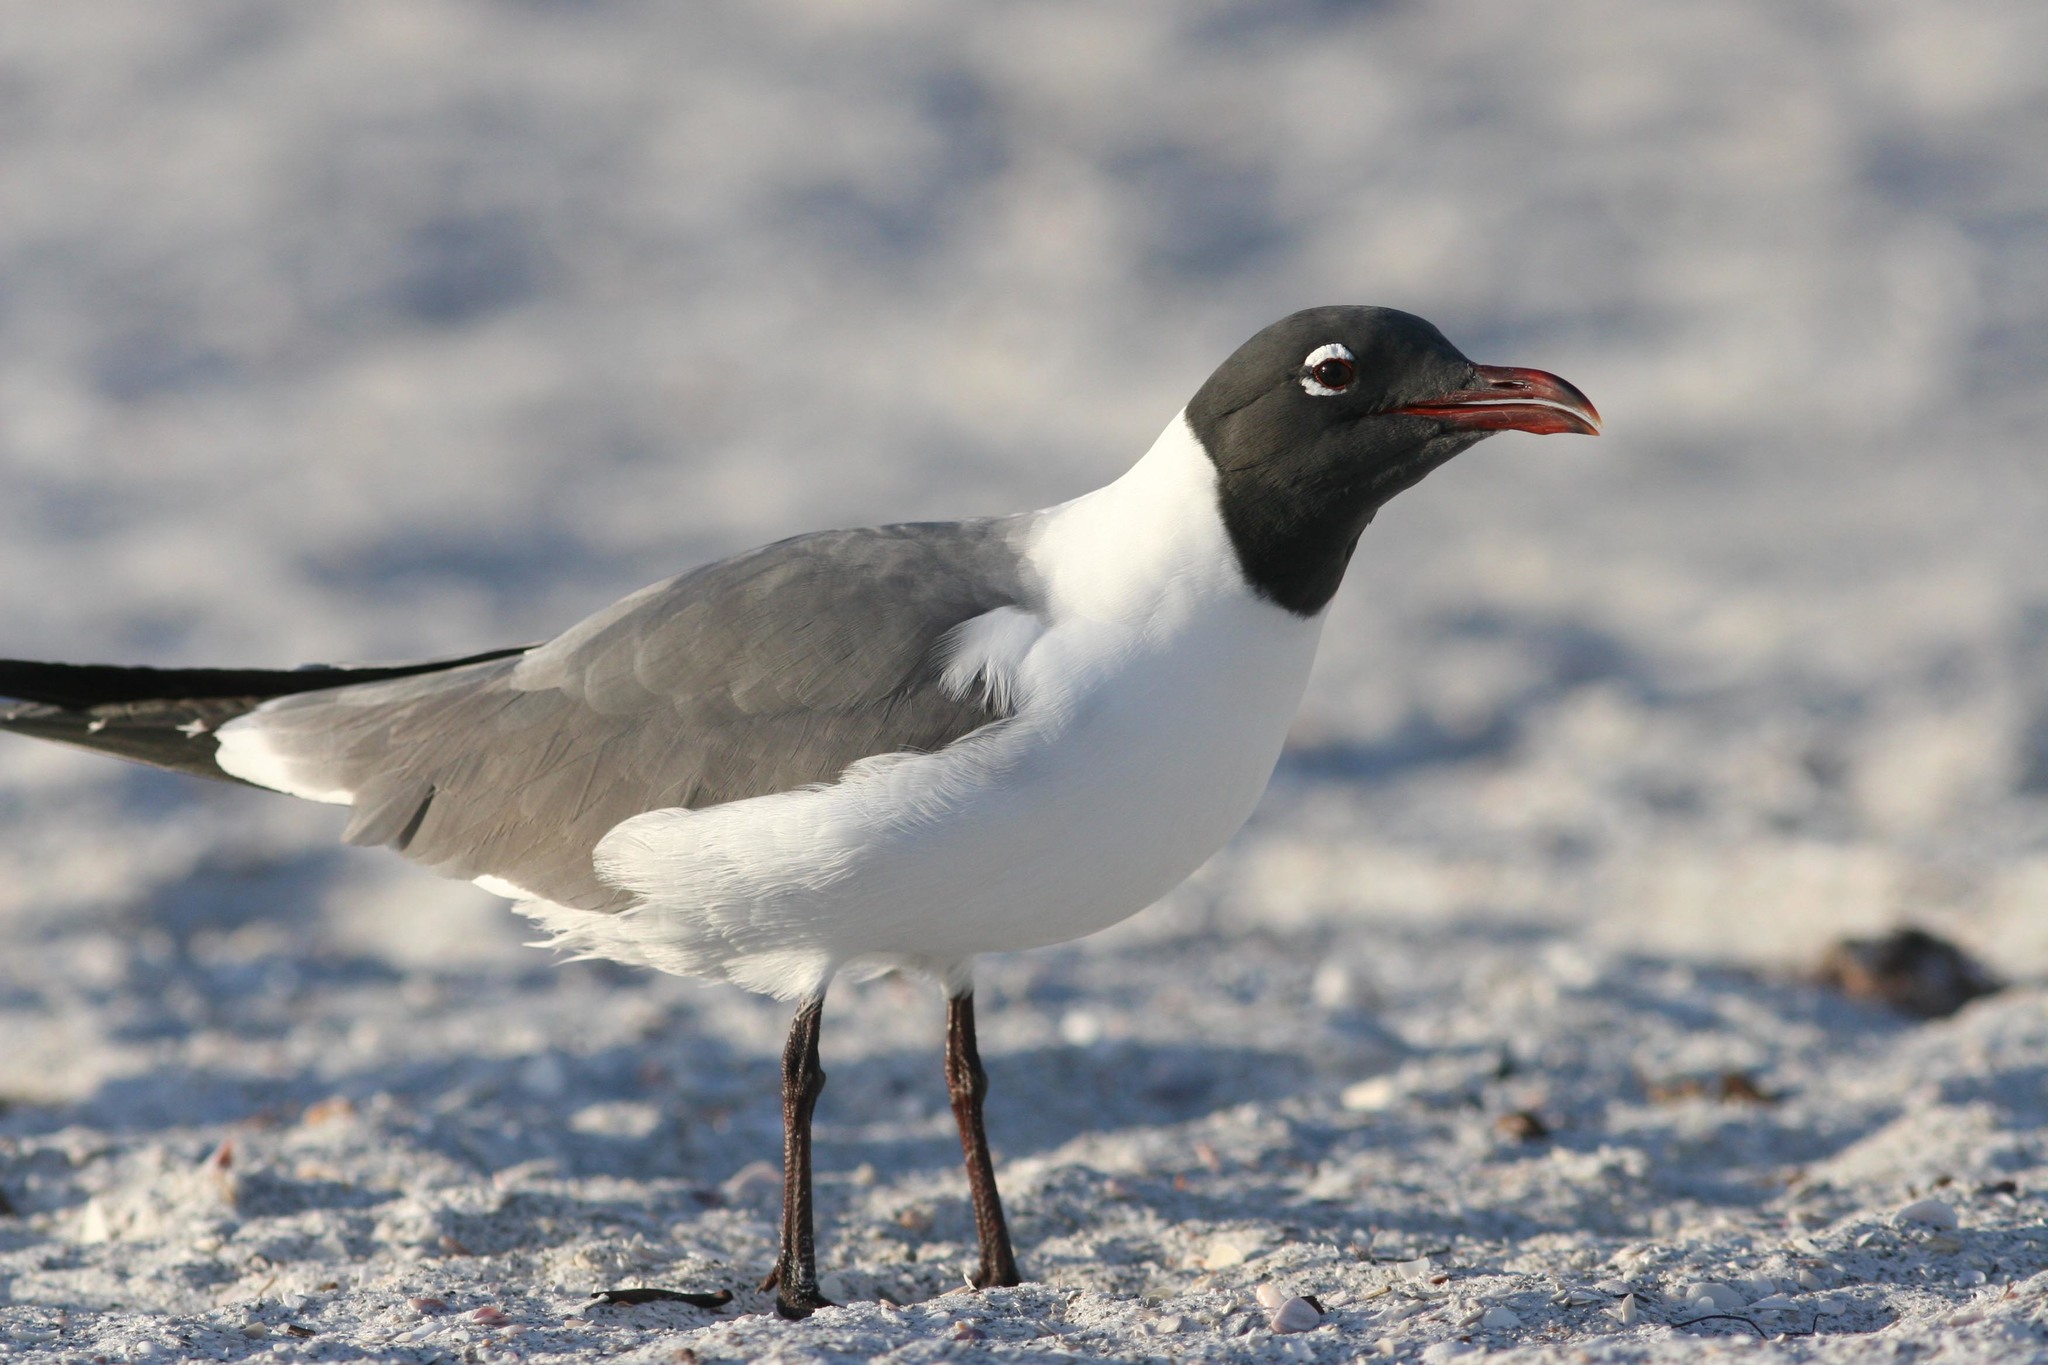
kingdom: Animalia
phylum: Chordata
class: Aves
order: Charadriiformes
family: Laridae
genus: Leucophaeus
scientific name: Leucophaeus atricilla
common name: Laughing gull
